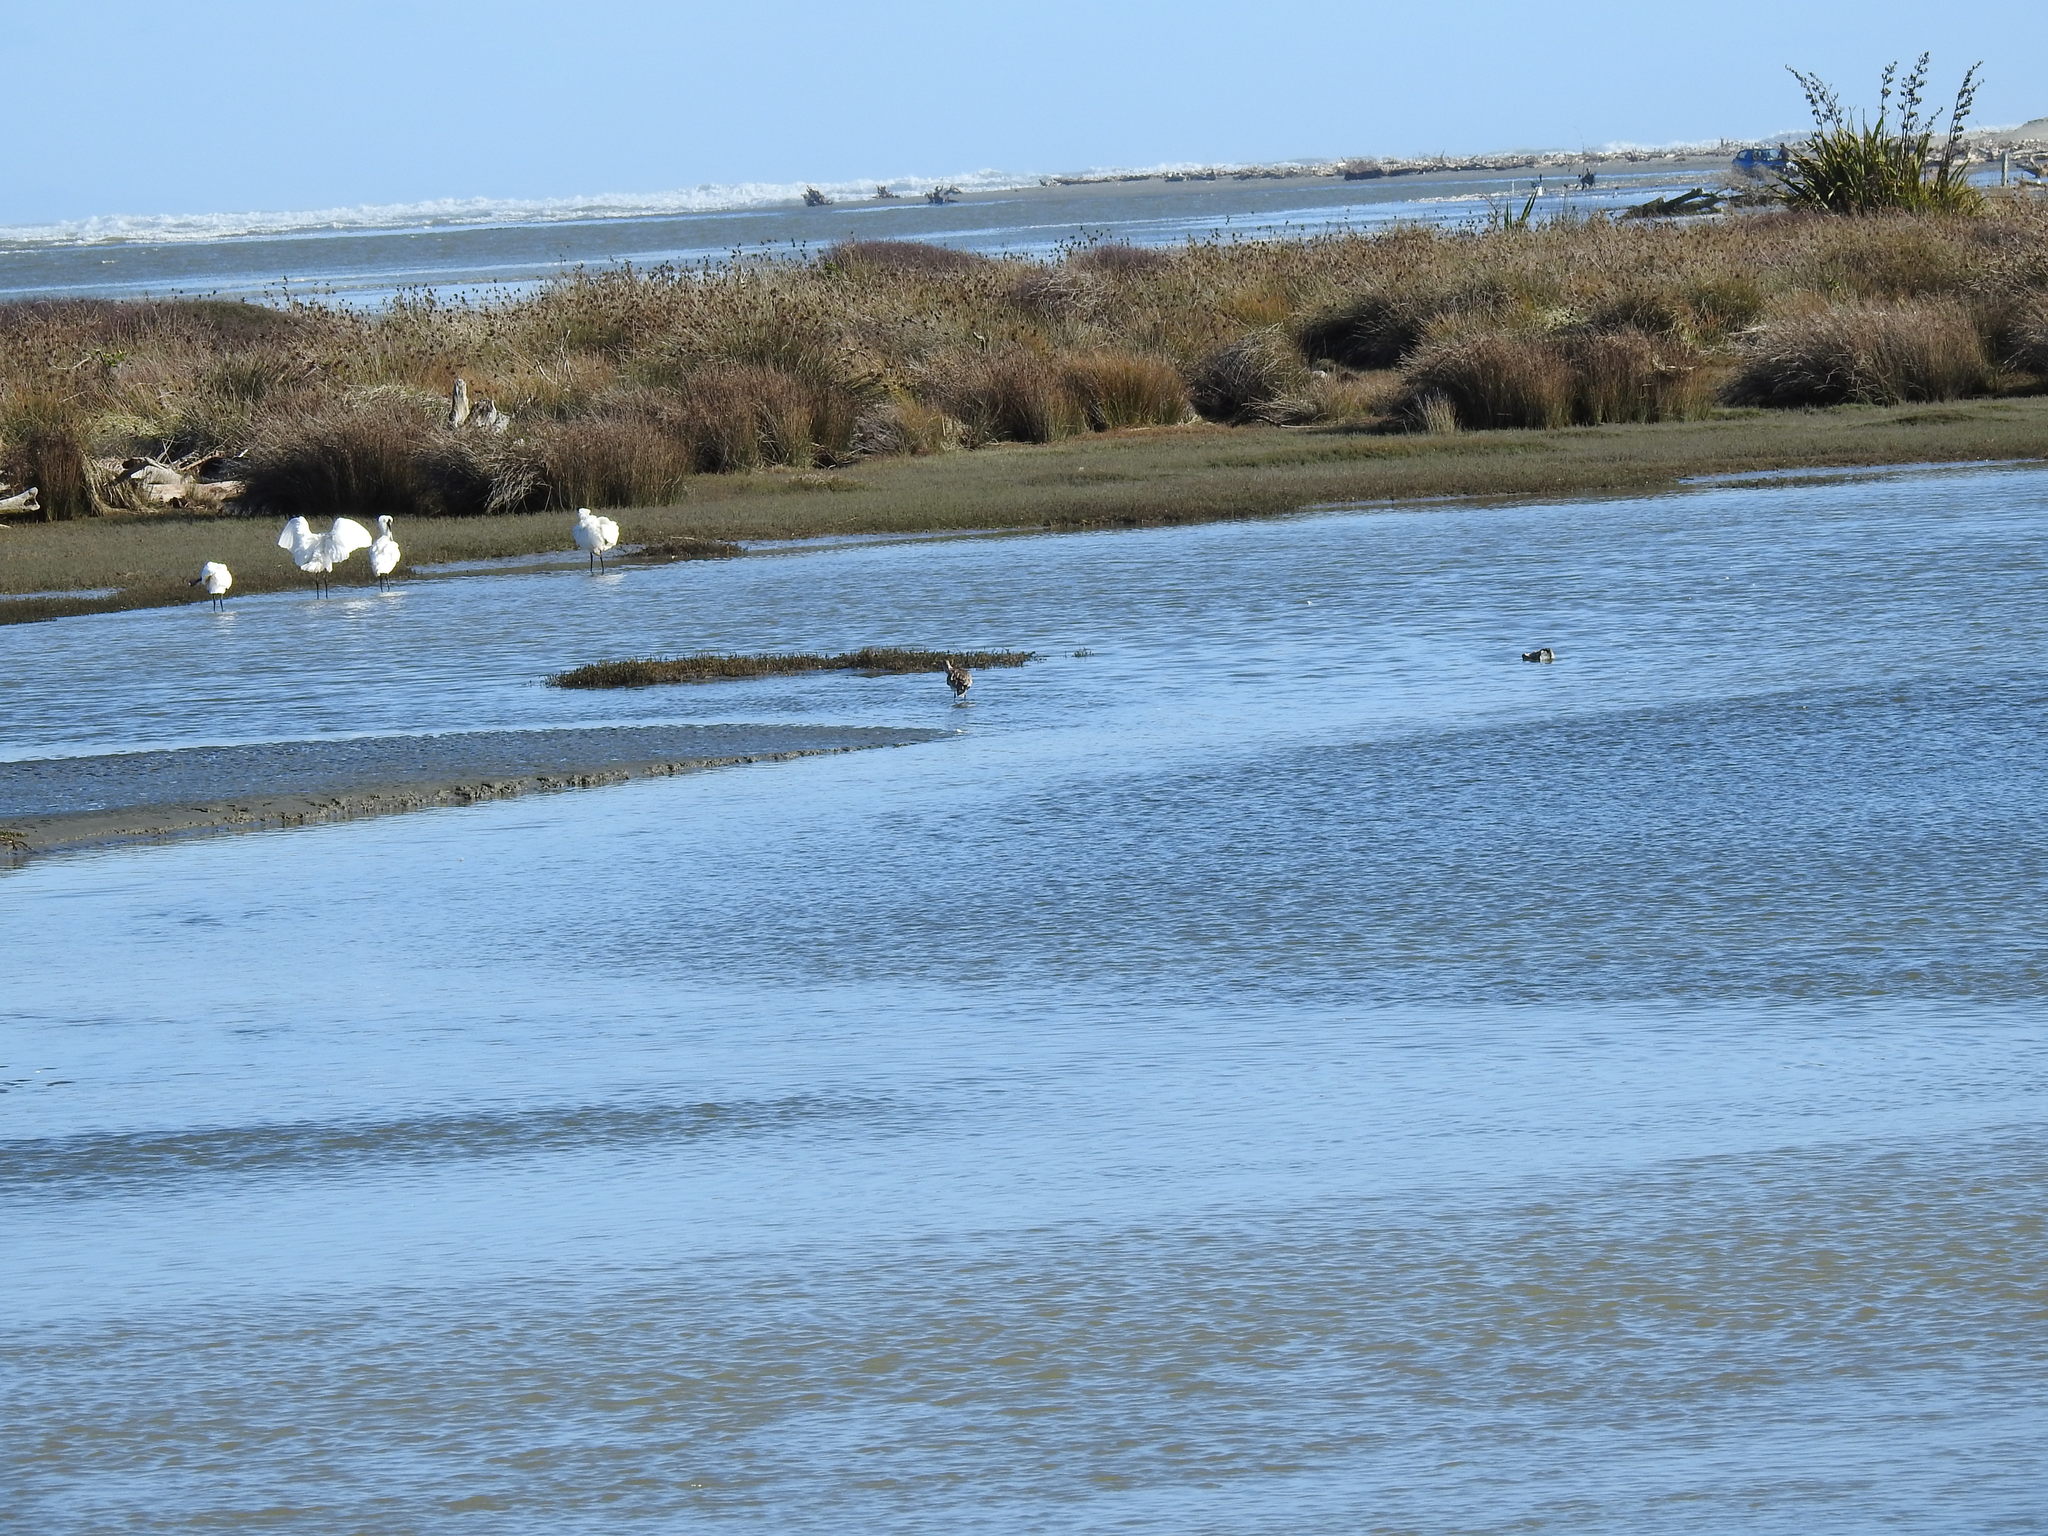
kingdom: Animalia
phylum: Chordata
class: Aves
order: Pelecaniformes
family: Threskiornithidae
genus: Platalea
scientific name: Platalea regia
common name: Royal spoonbill
